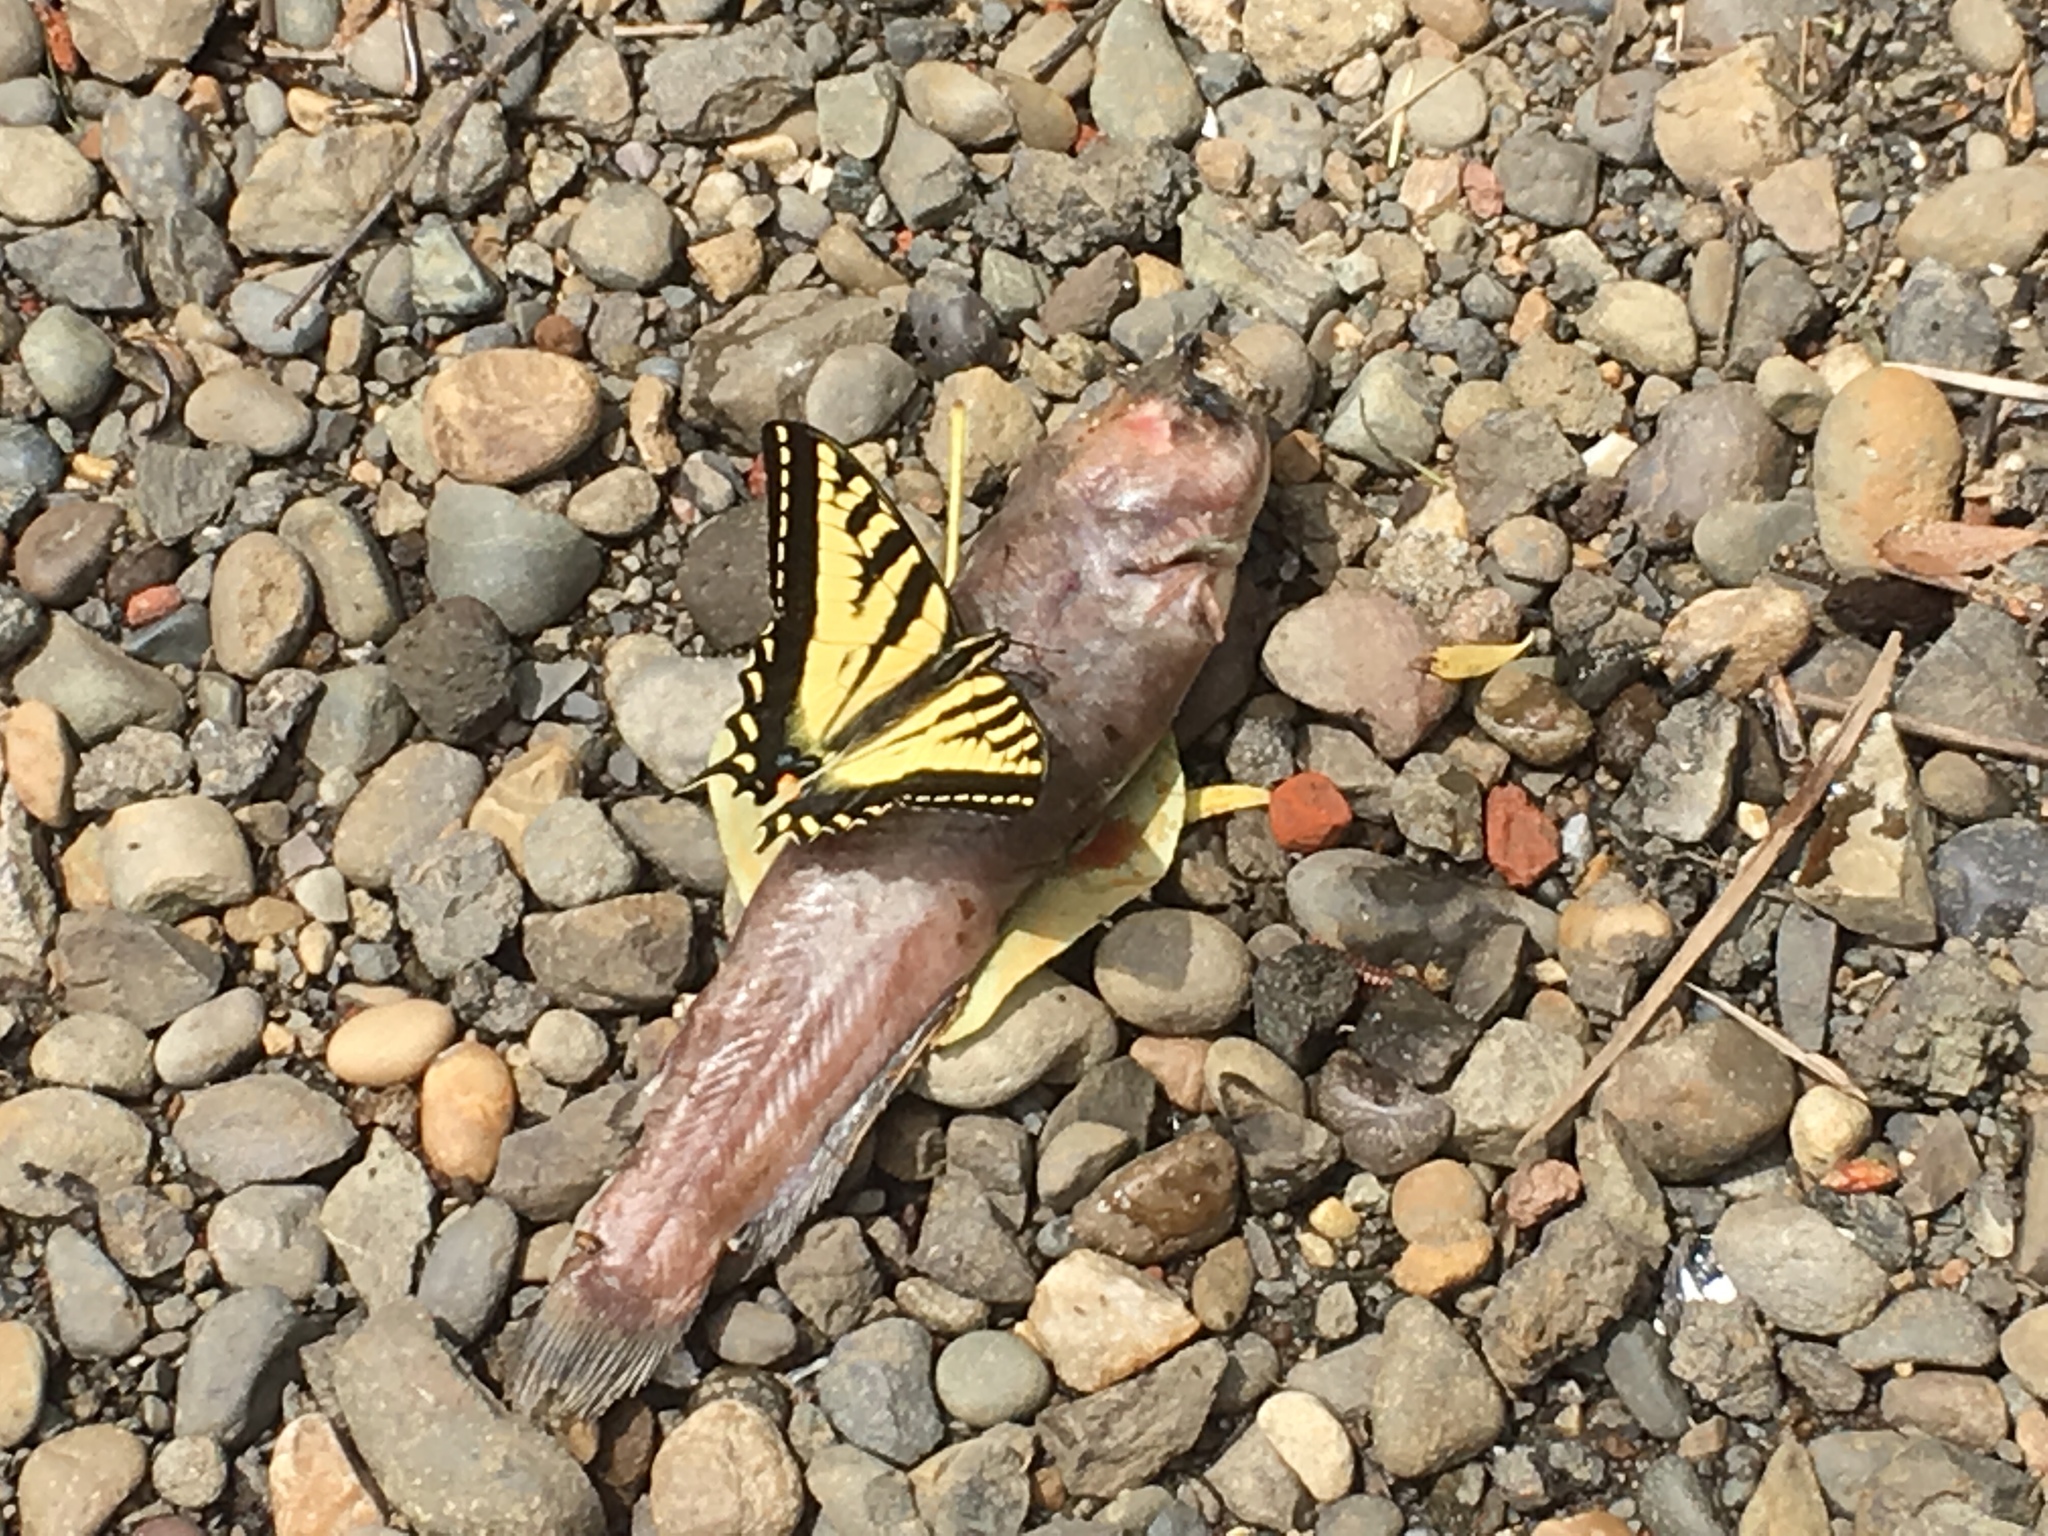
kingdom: Animalia
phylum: Arthropoda
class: Insecta
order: Lepidoptera
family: Papilionidae
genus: Papilio
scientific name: Papilio rutulus
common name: Western tiger swallowtail
